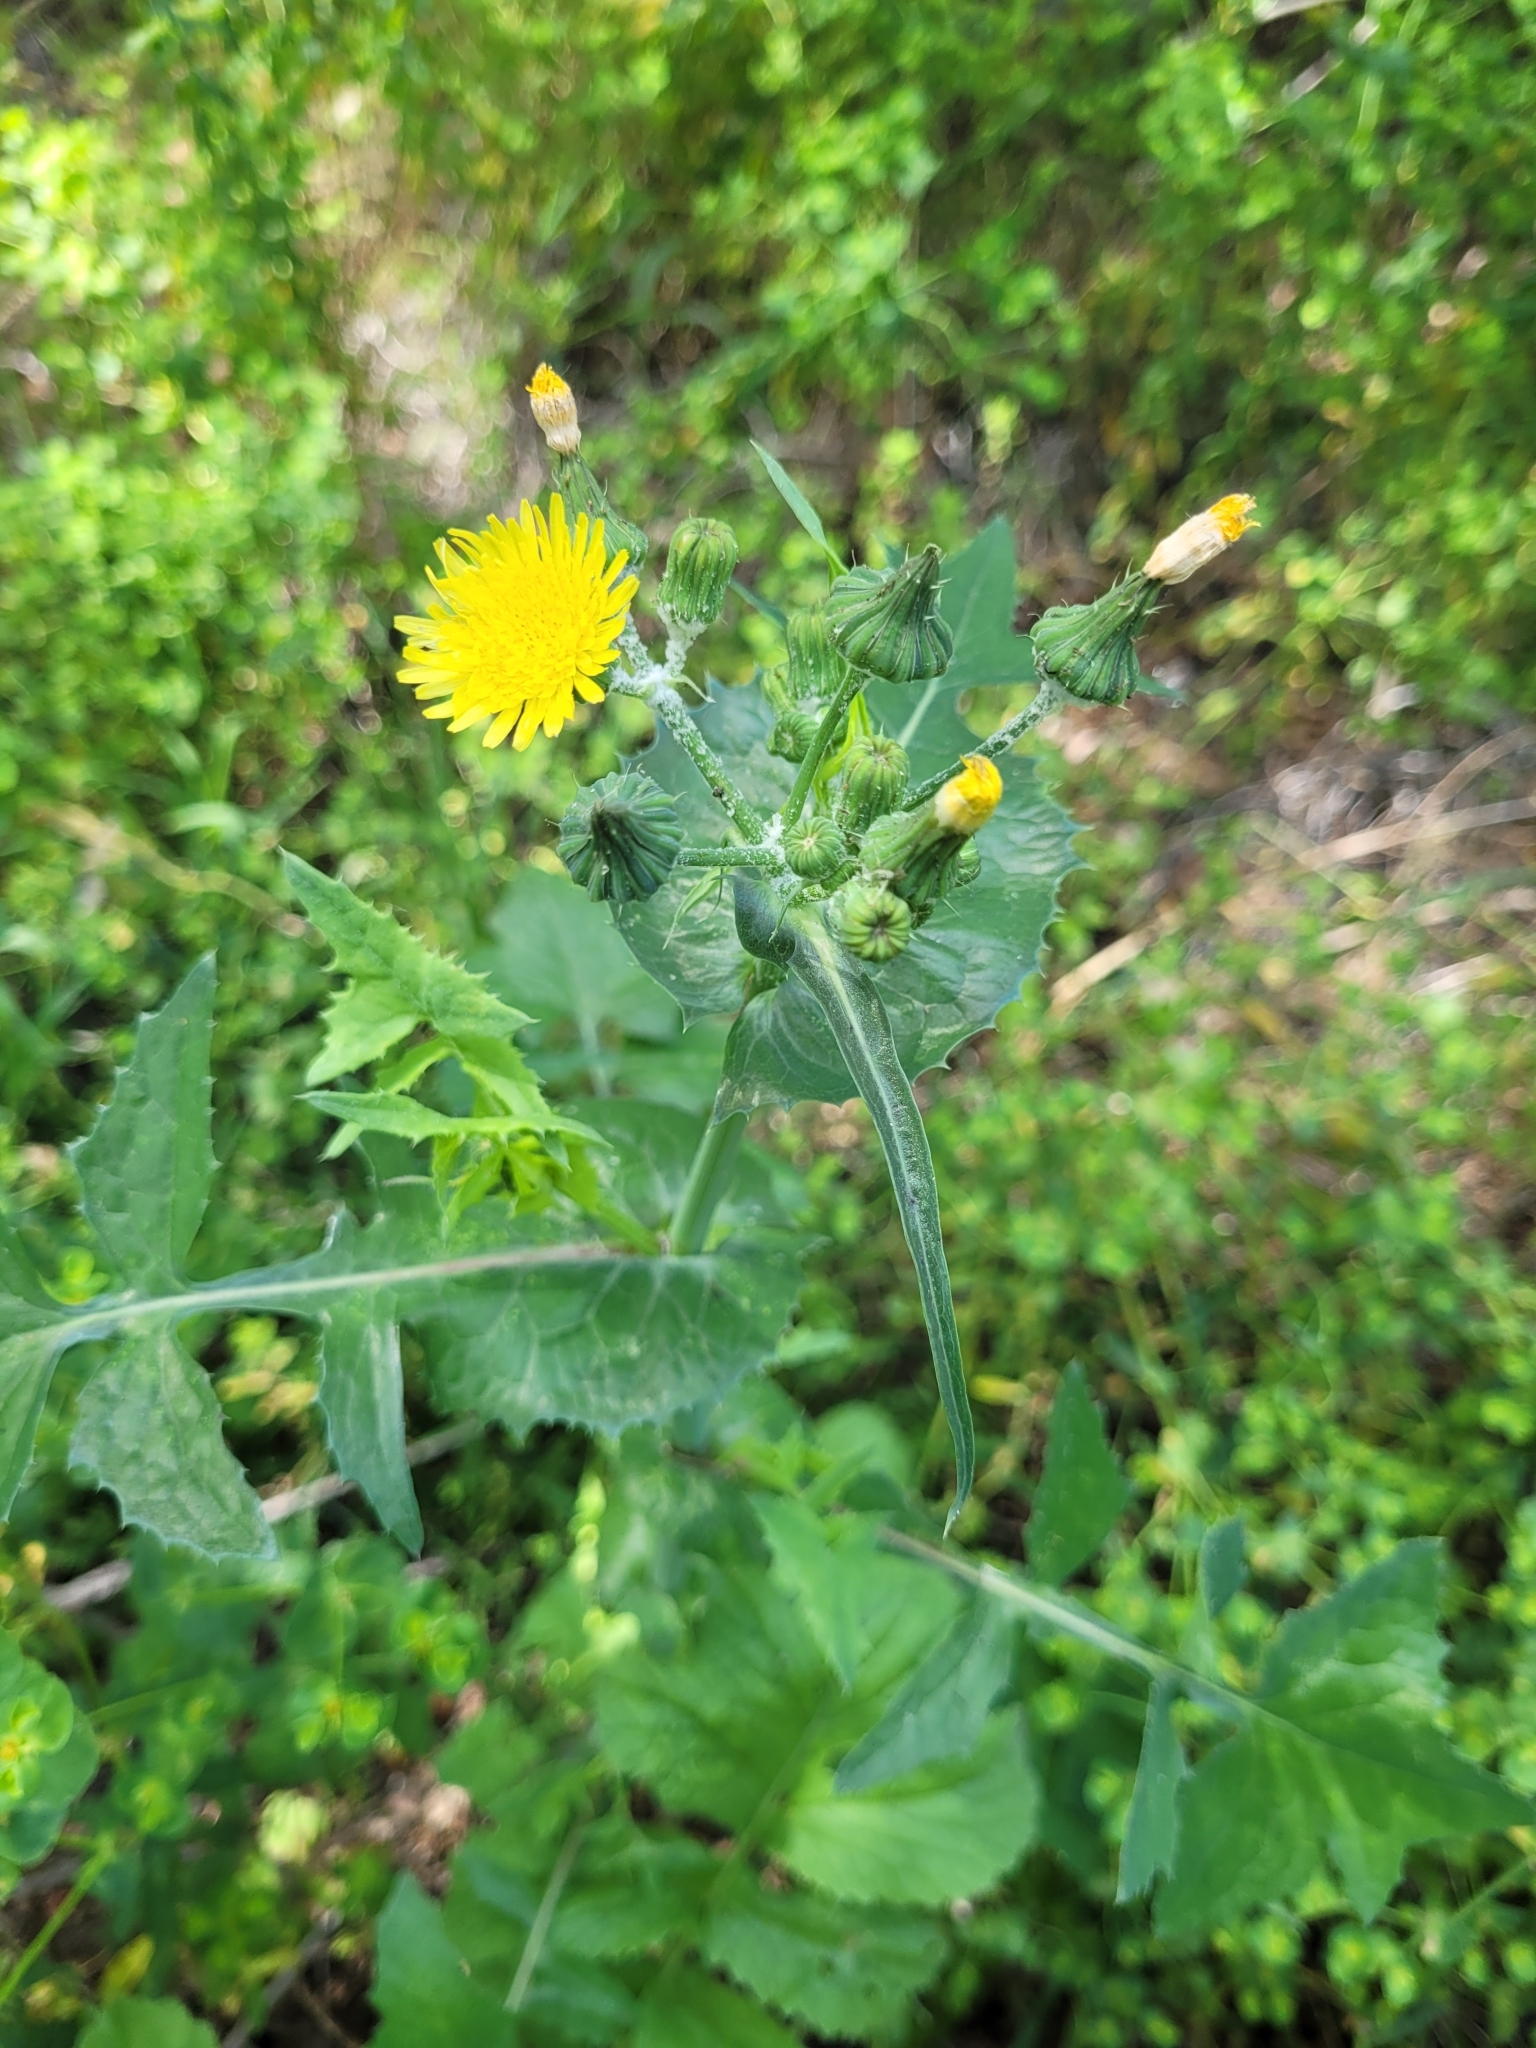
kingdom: Plantae
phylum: Tracheophyta
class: Magnoliopsida
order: Asterales
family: Asteraceae
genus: Sonchus
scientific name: Sonchus oleraceus
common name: Common sowthistle
